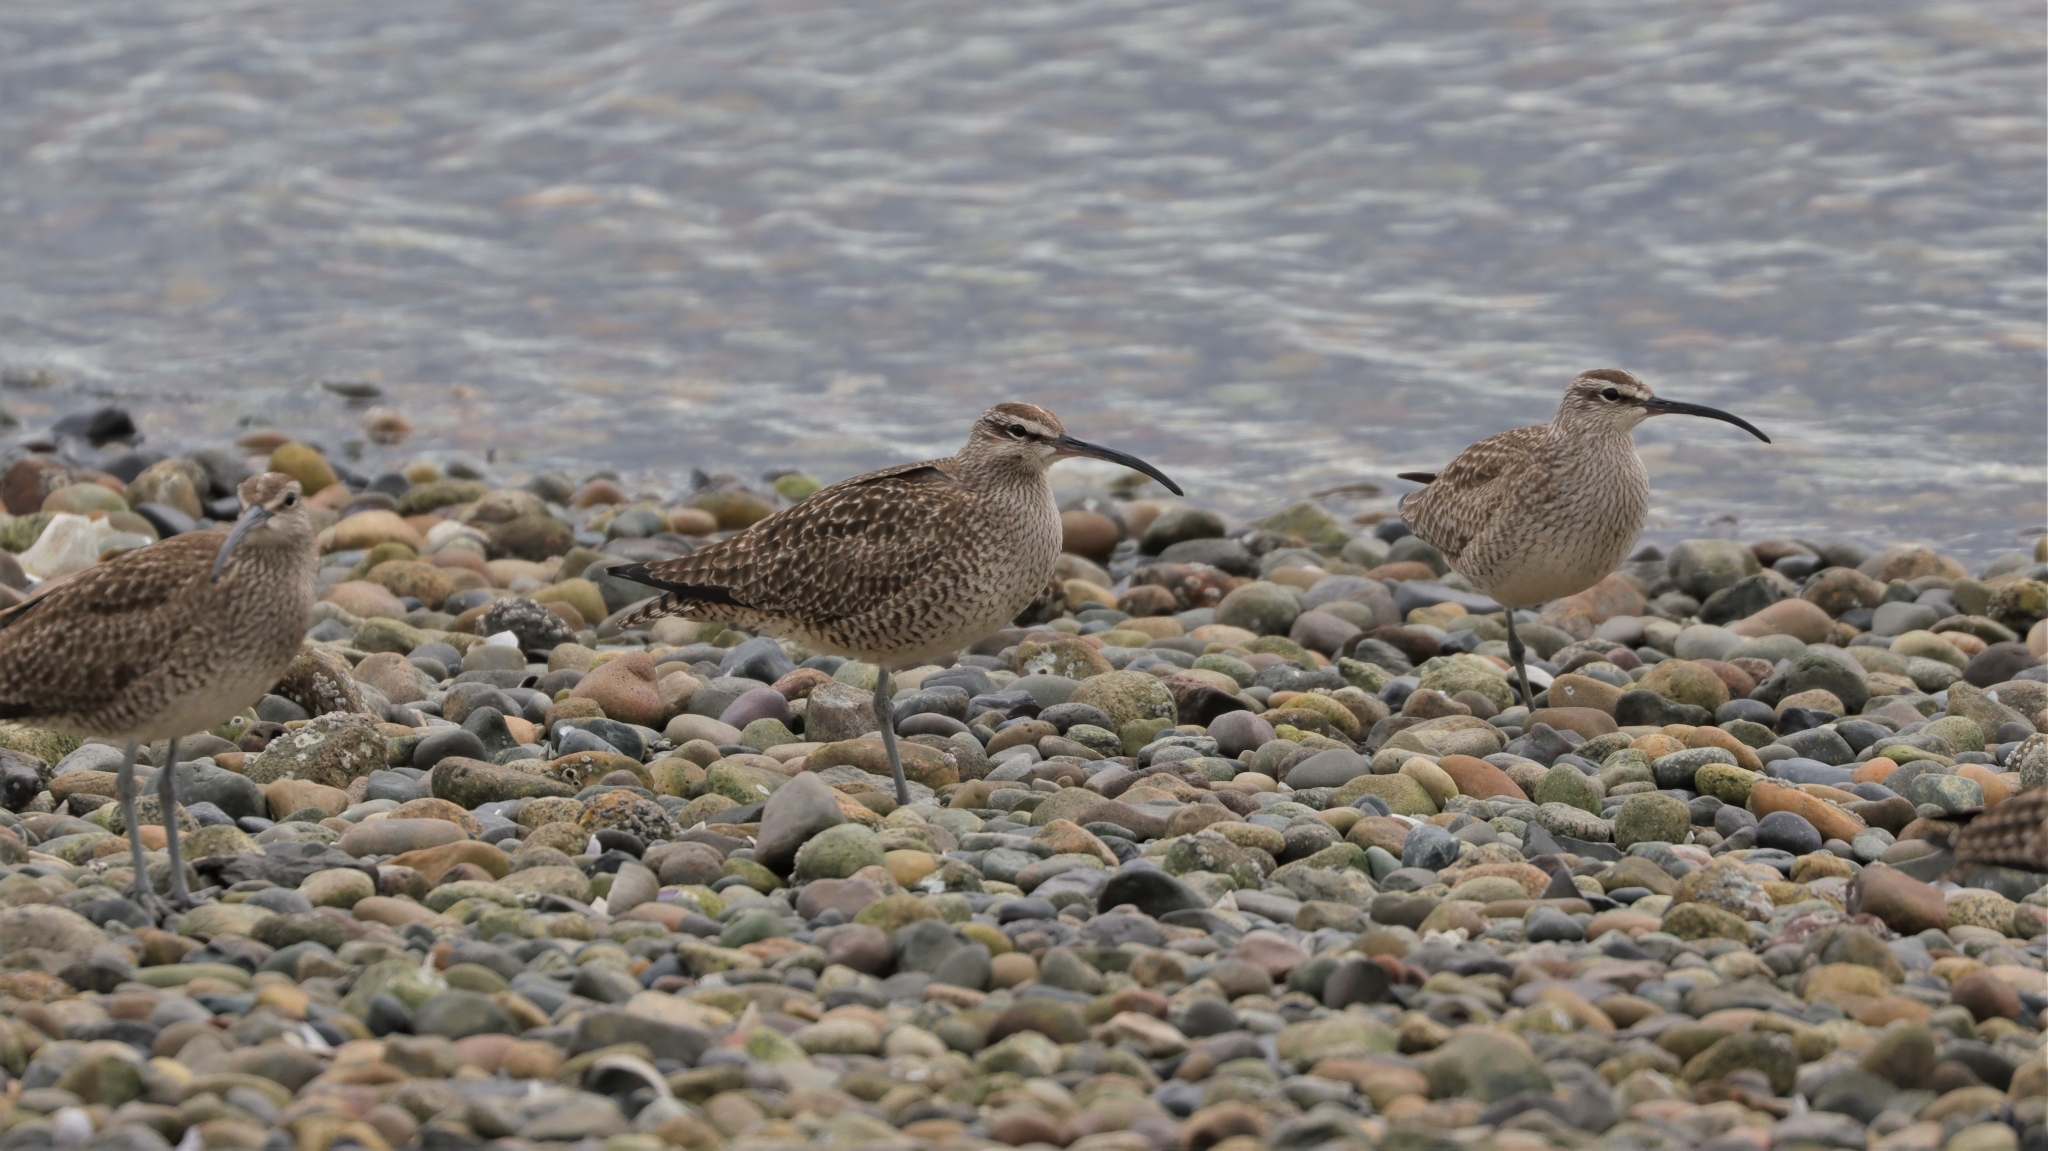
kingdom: Animalia
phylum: Chordata
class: Aves
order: Charadriiformes
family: Scolopacidae
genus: Numenius
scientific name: Numenius phaeopus
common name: Whimbrel
